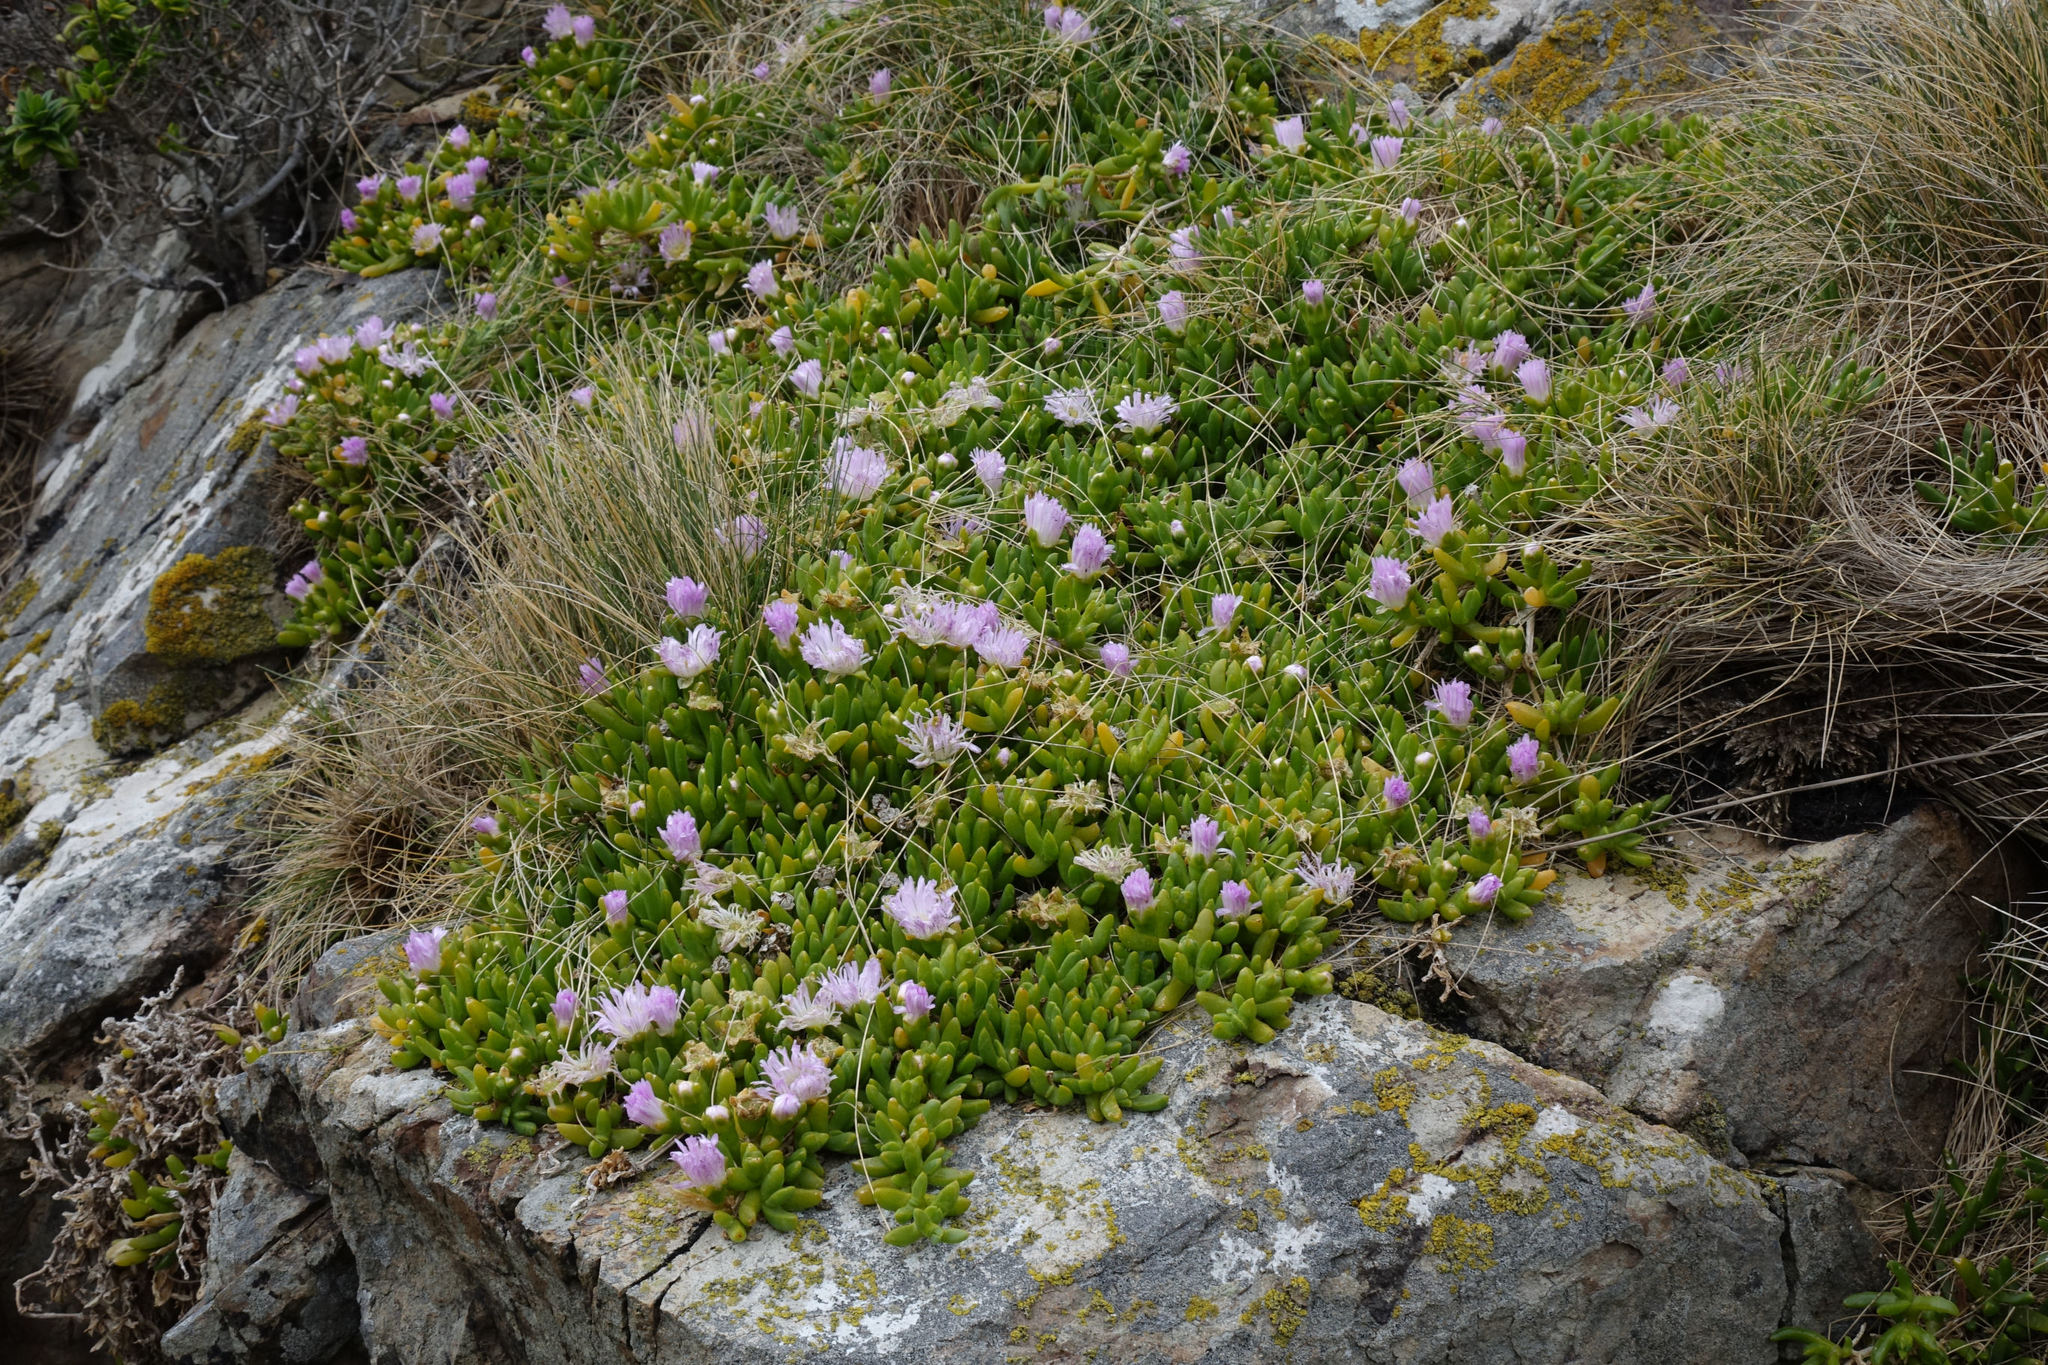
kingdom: Plantae
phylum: Tracheophyta
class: Magnoliopsida
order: Caryophyllales
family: Aizoaceae
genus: Disphyma
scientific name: Disphyma australe
